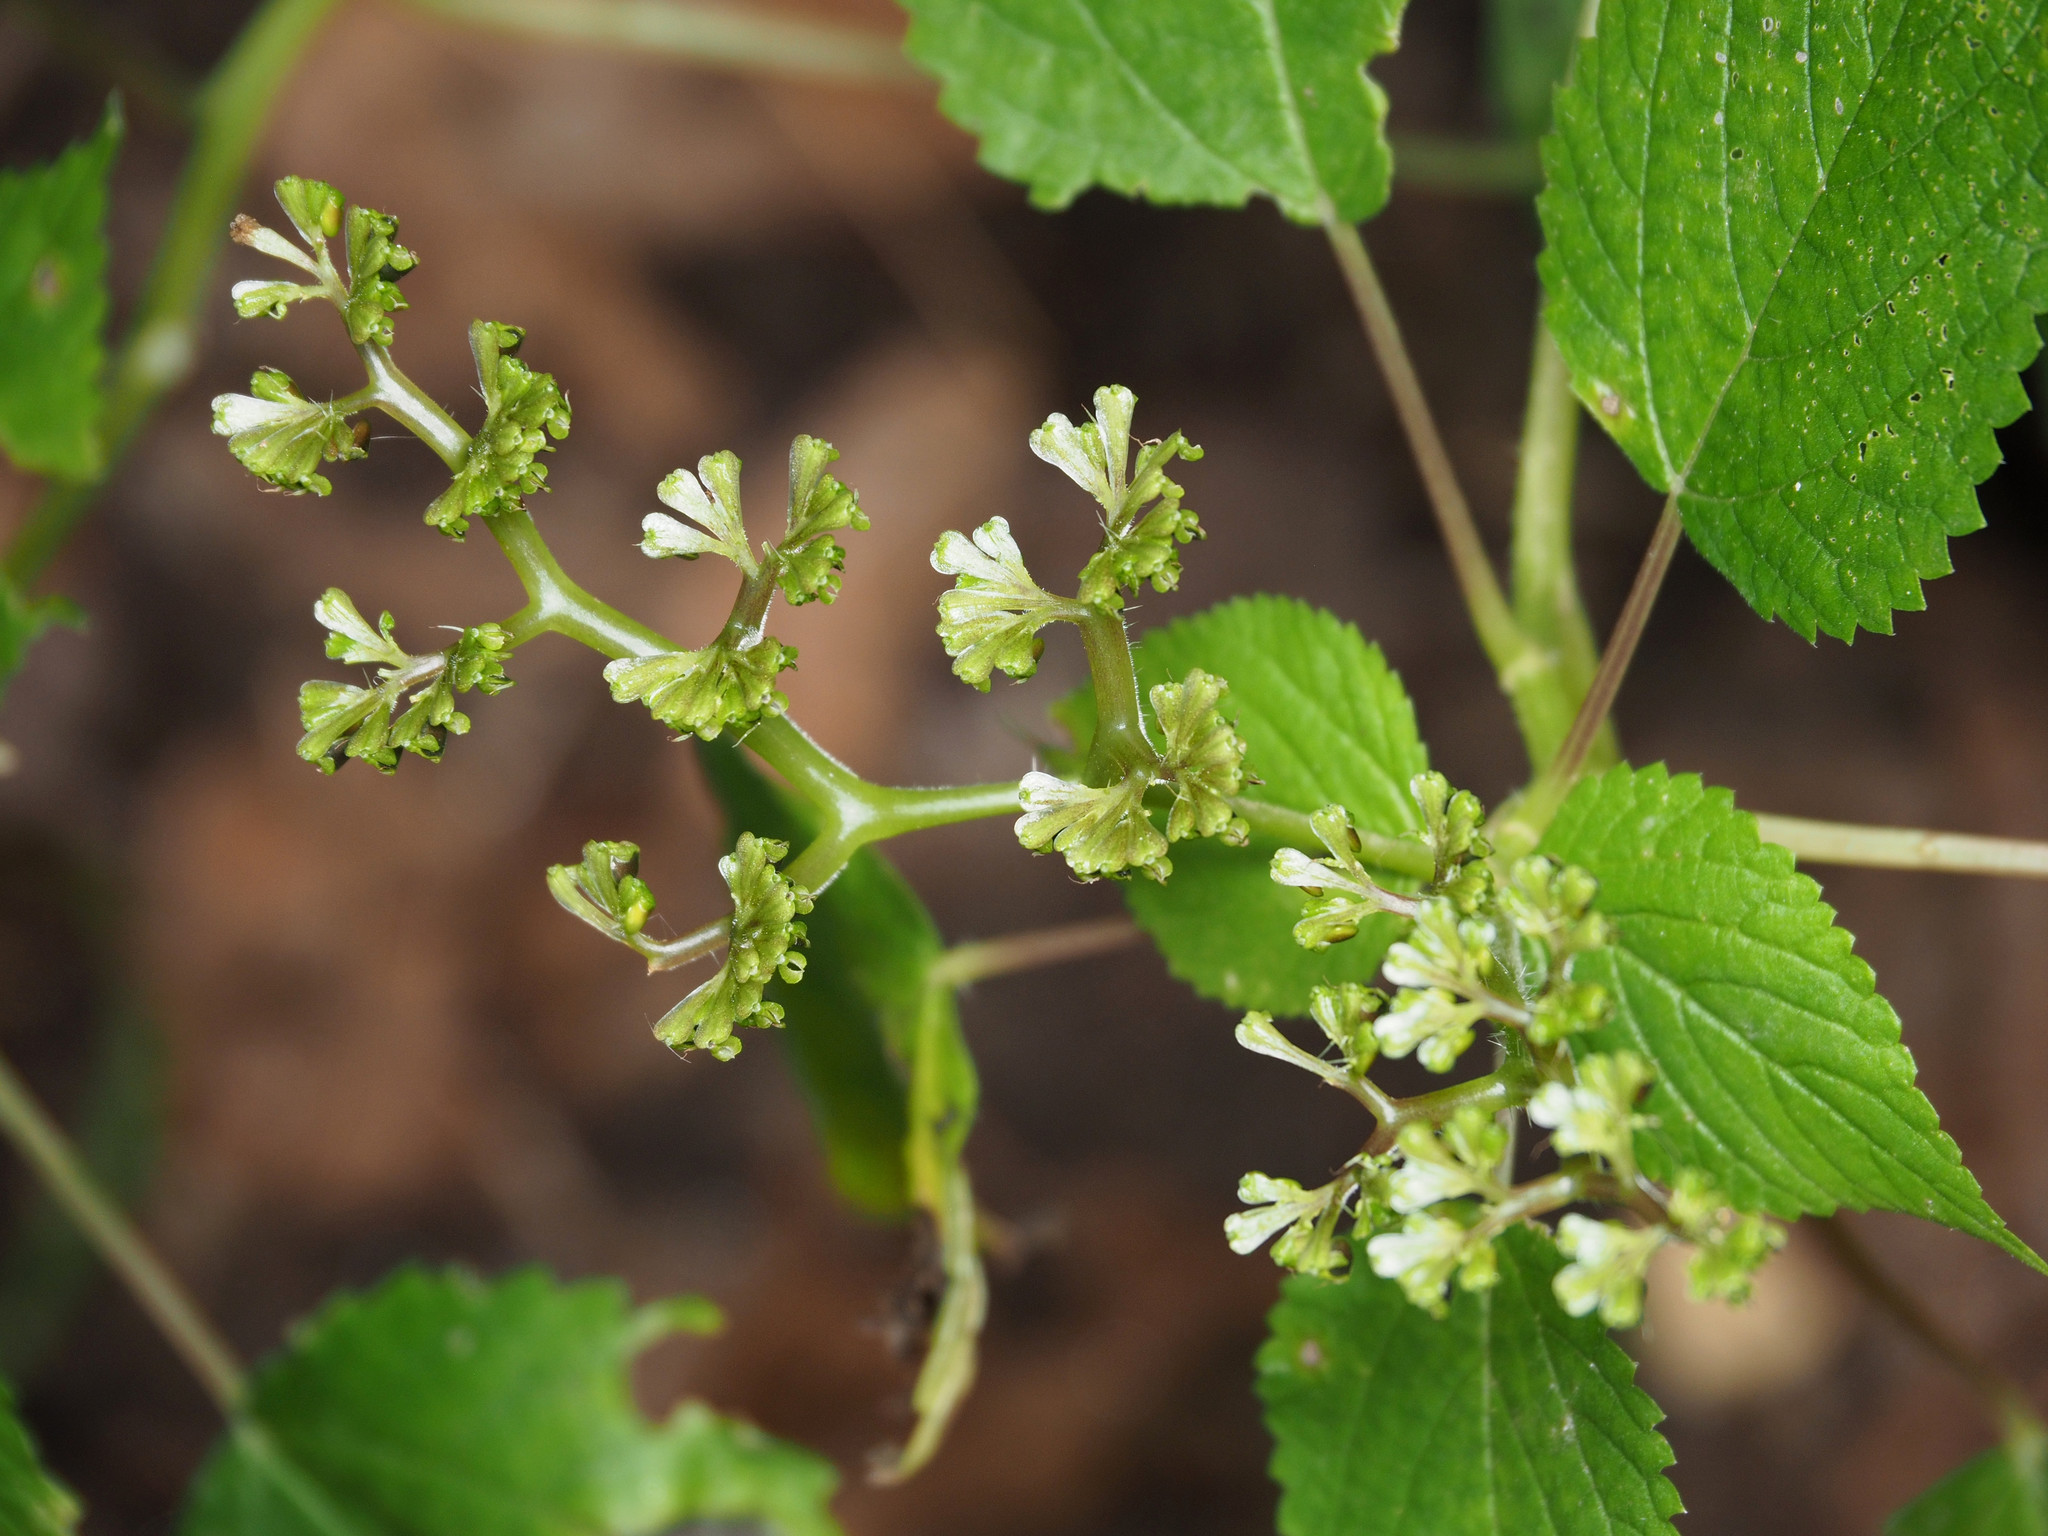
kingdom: Plantae
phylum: Tracheophyta
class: Magnoliopsida
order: Rosales
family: Urticaceae
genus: Laportea
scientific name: Laportea canadensis
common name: Canada nettle
